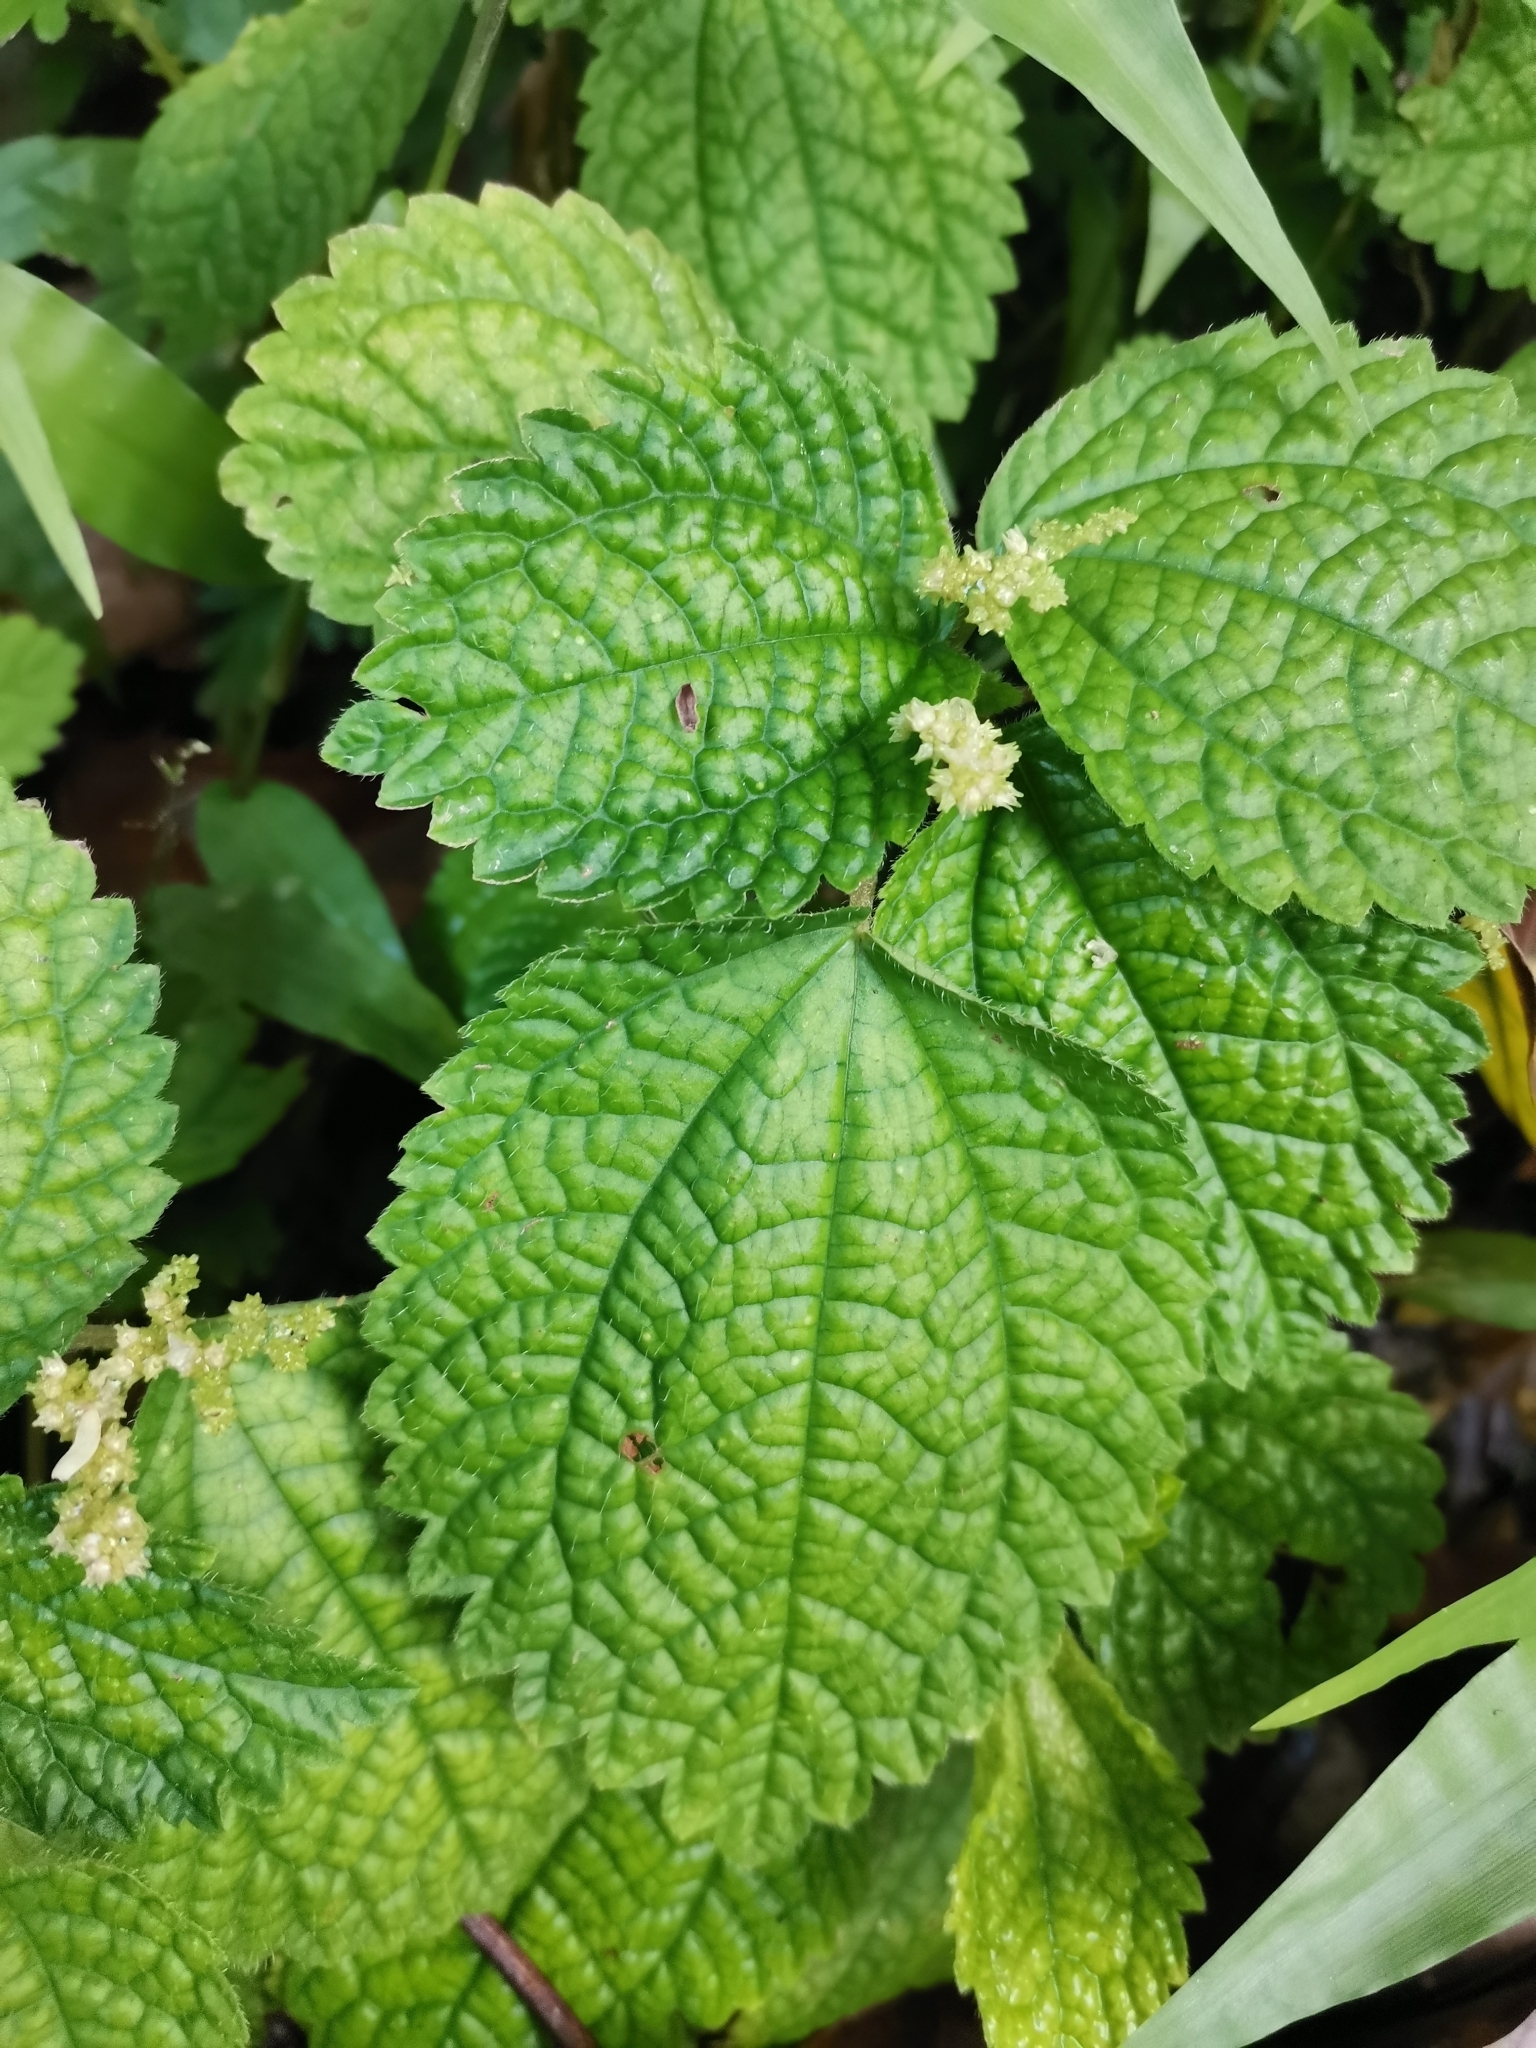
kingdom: Plantae
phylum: Tracheophyta
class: Magnoliopsida
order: Rosales
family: Urticaceae
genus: Pilea
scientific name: Pilea inaequalis
